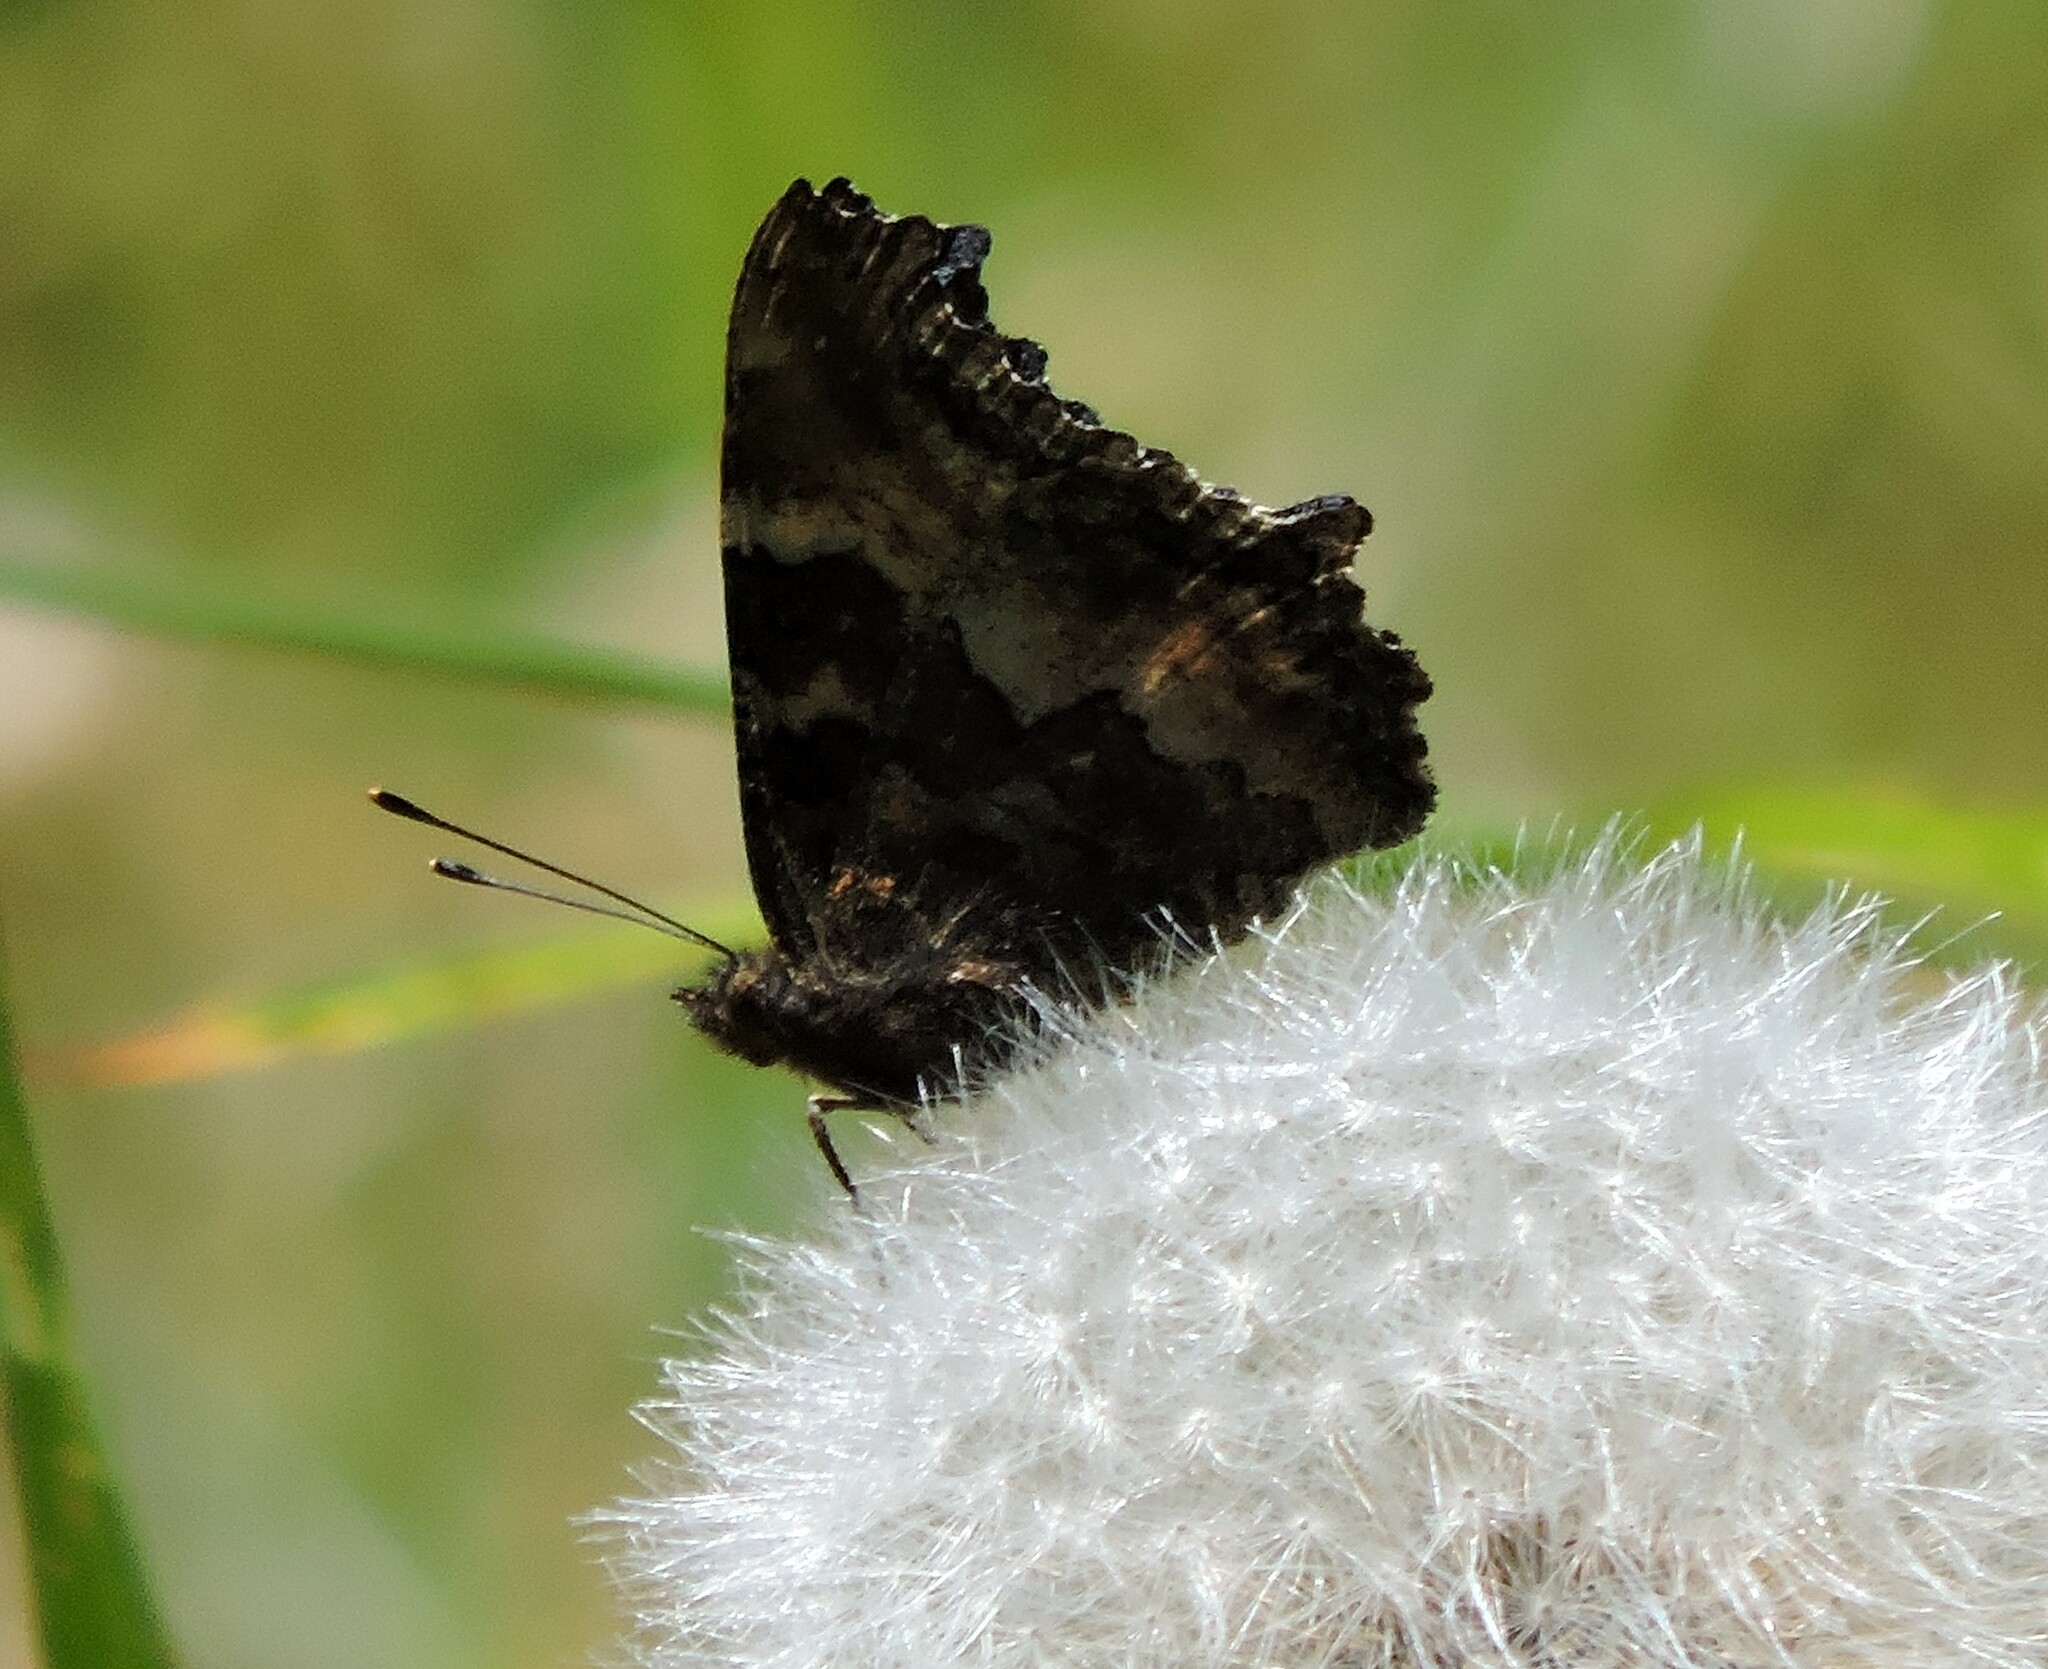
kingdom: Animalia
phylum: Arthropoda
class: Insecta
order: Lepidoptera
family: Nymphalidae
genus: Nymphalis
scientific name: Nymphalis californica
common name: California tortoiseshell
